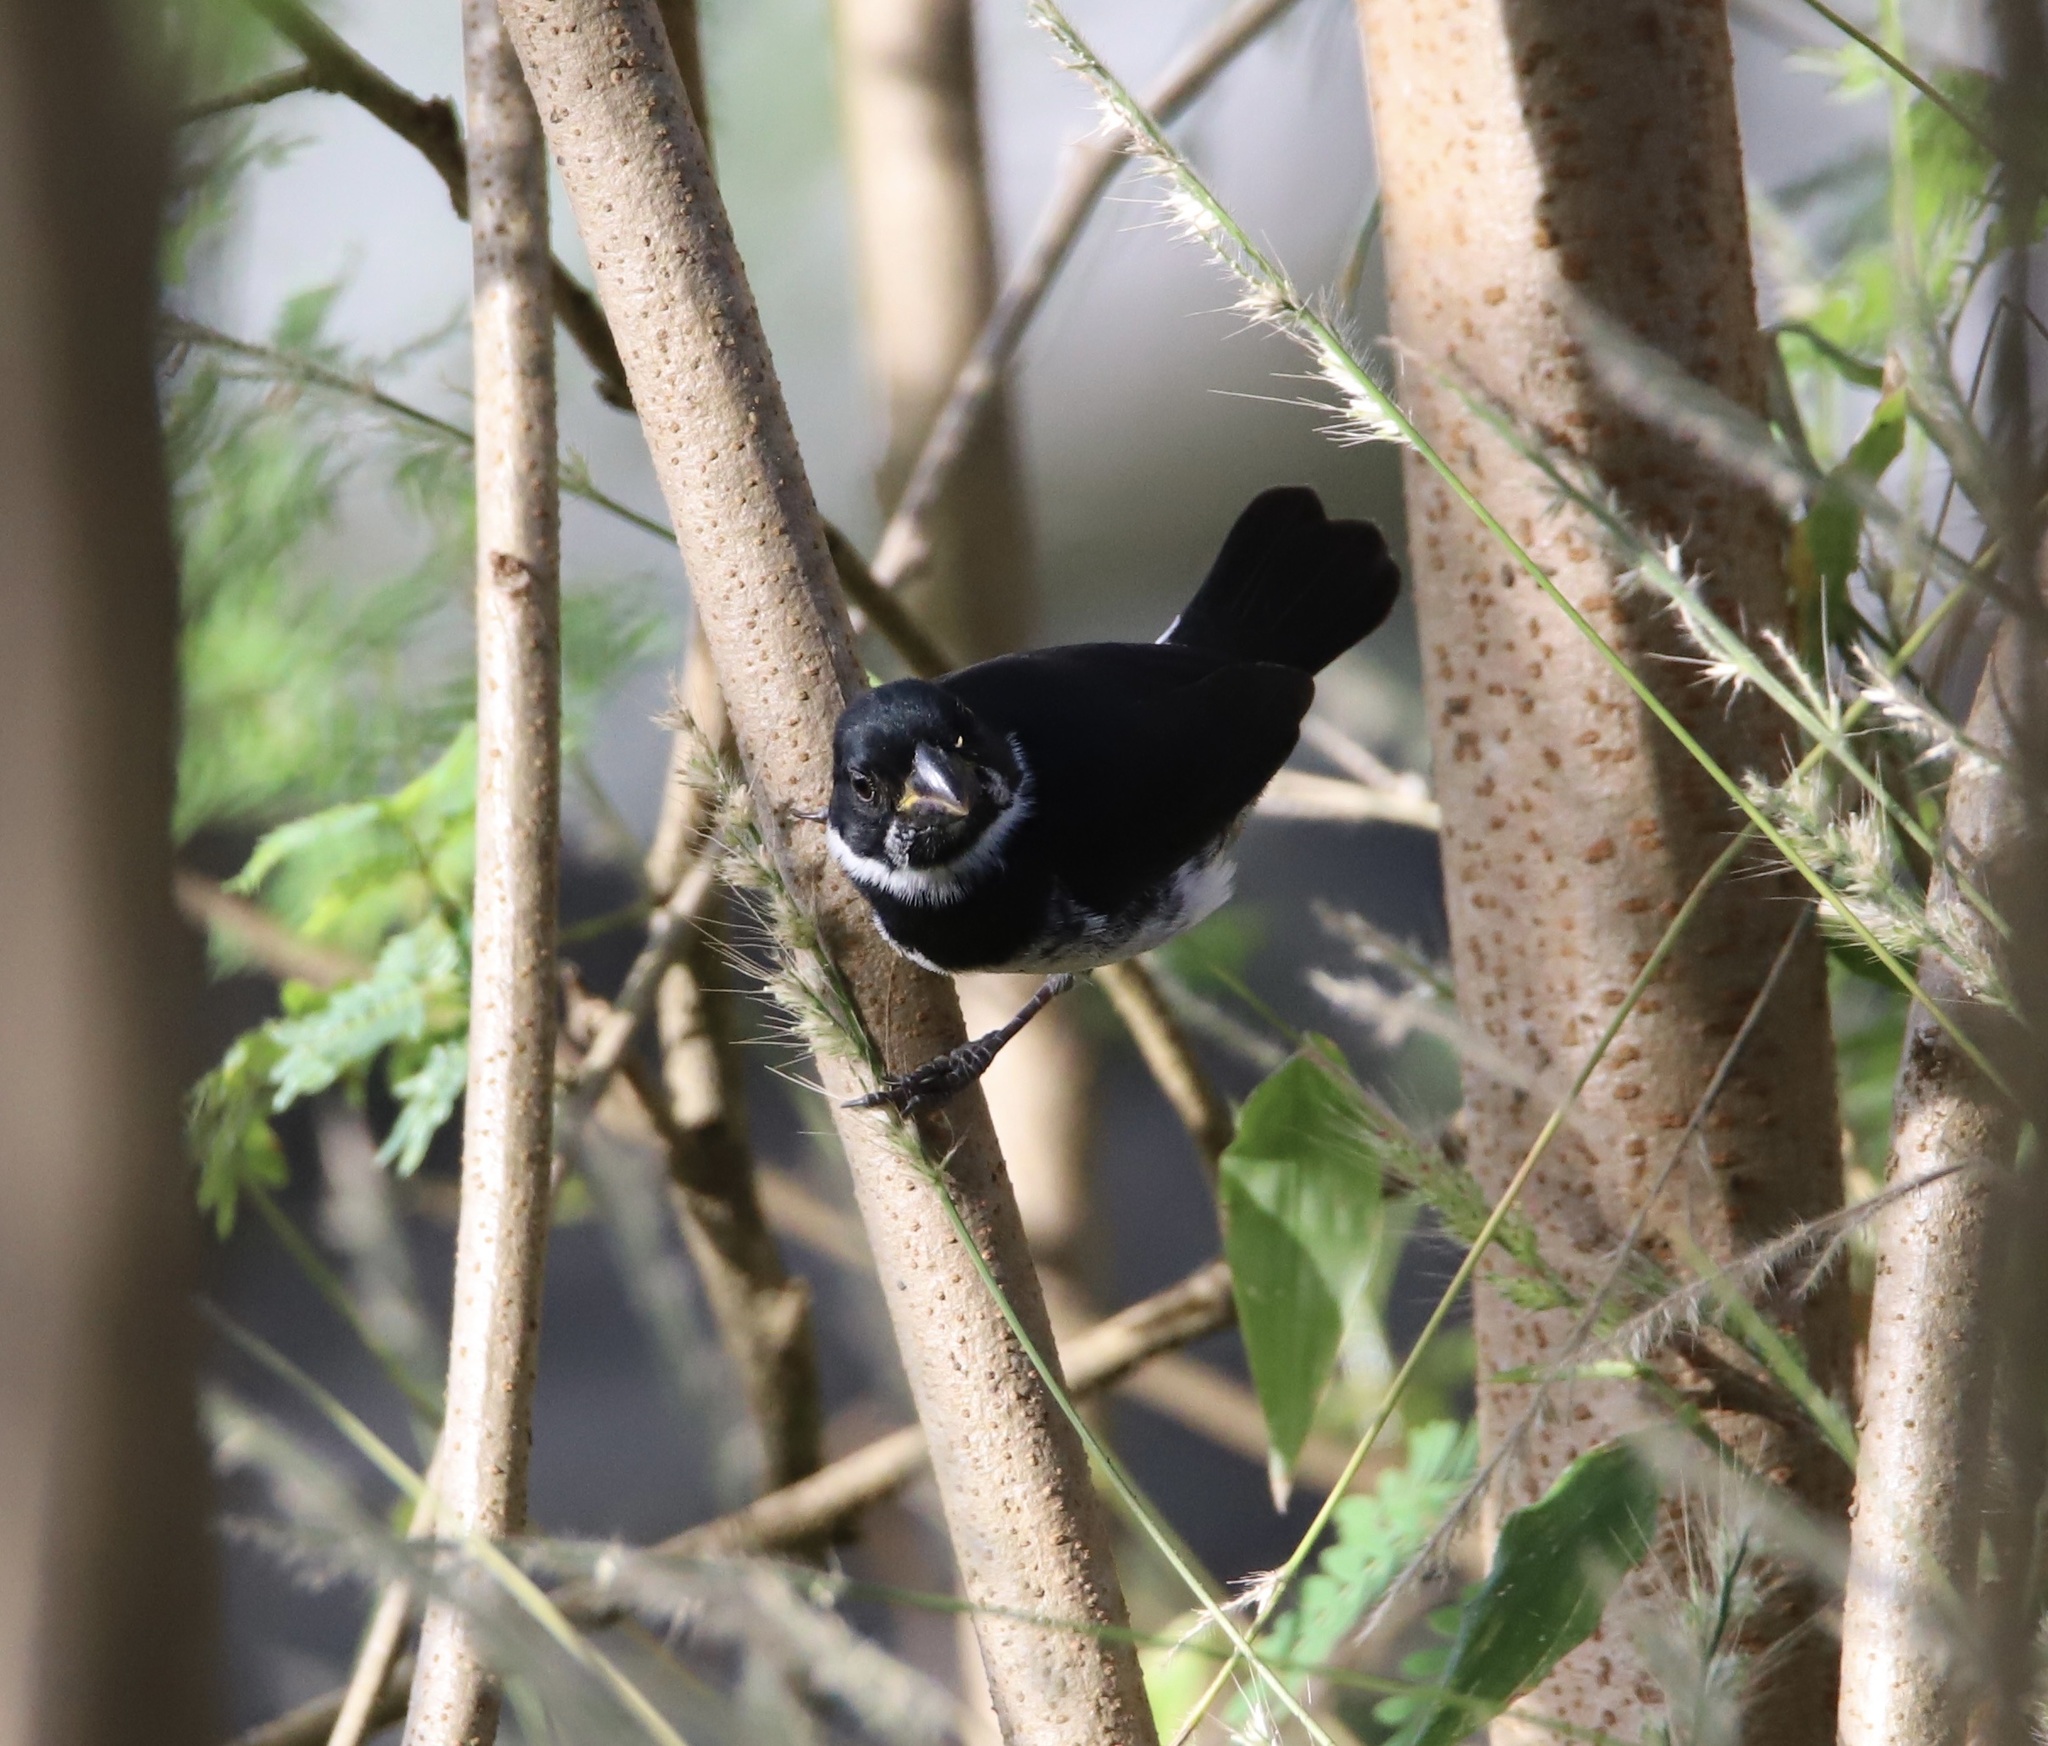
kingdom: Animalia
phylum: Chordata
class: Aves
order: Passeriformes
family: Thraupidae
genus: Sporophila
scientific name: Sporophila corvina
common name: Variable seedeater
